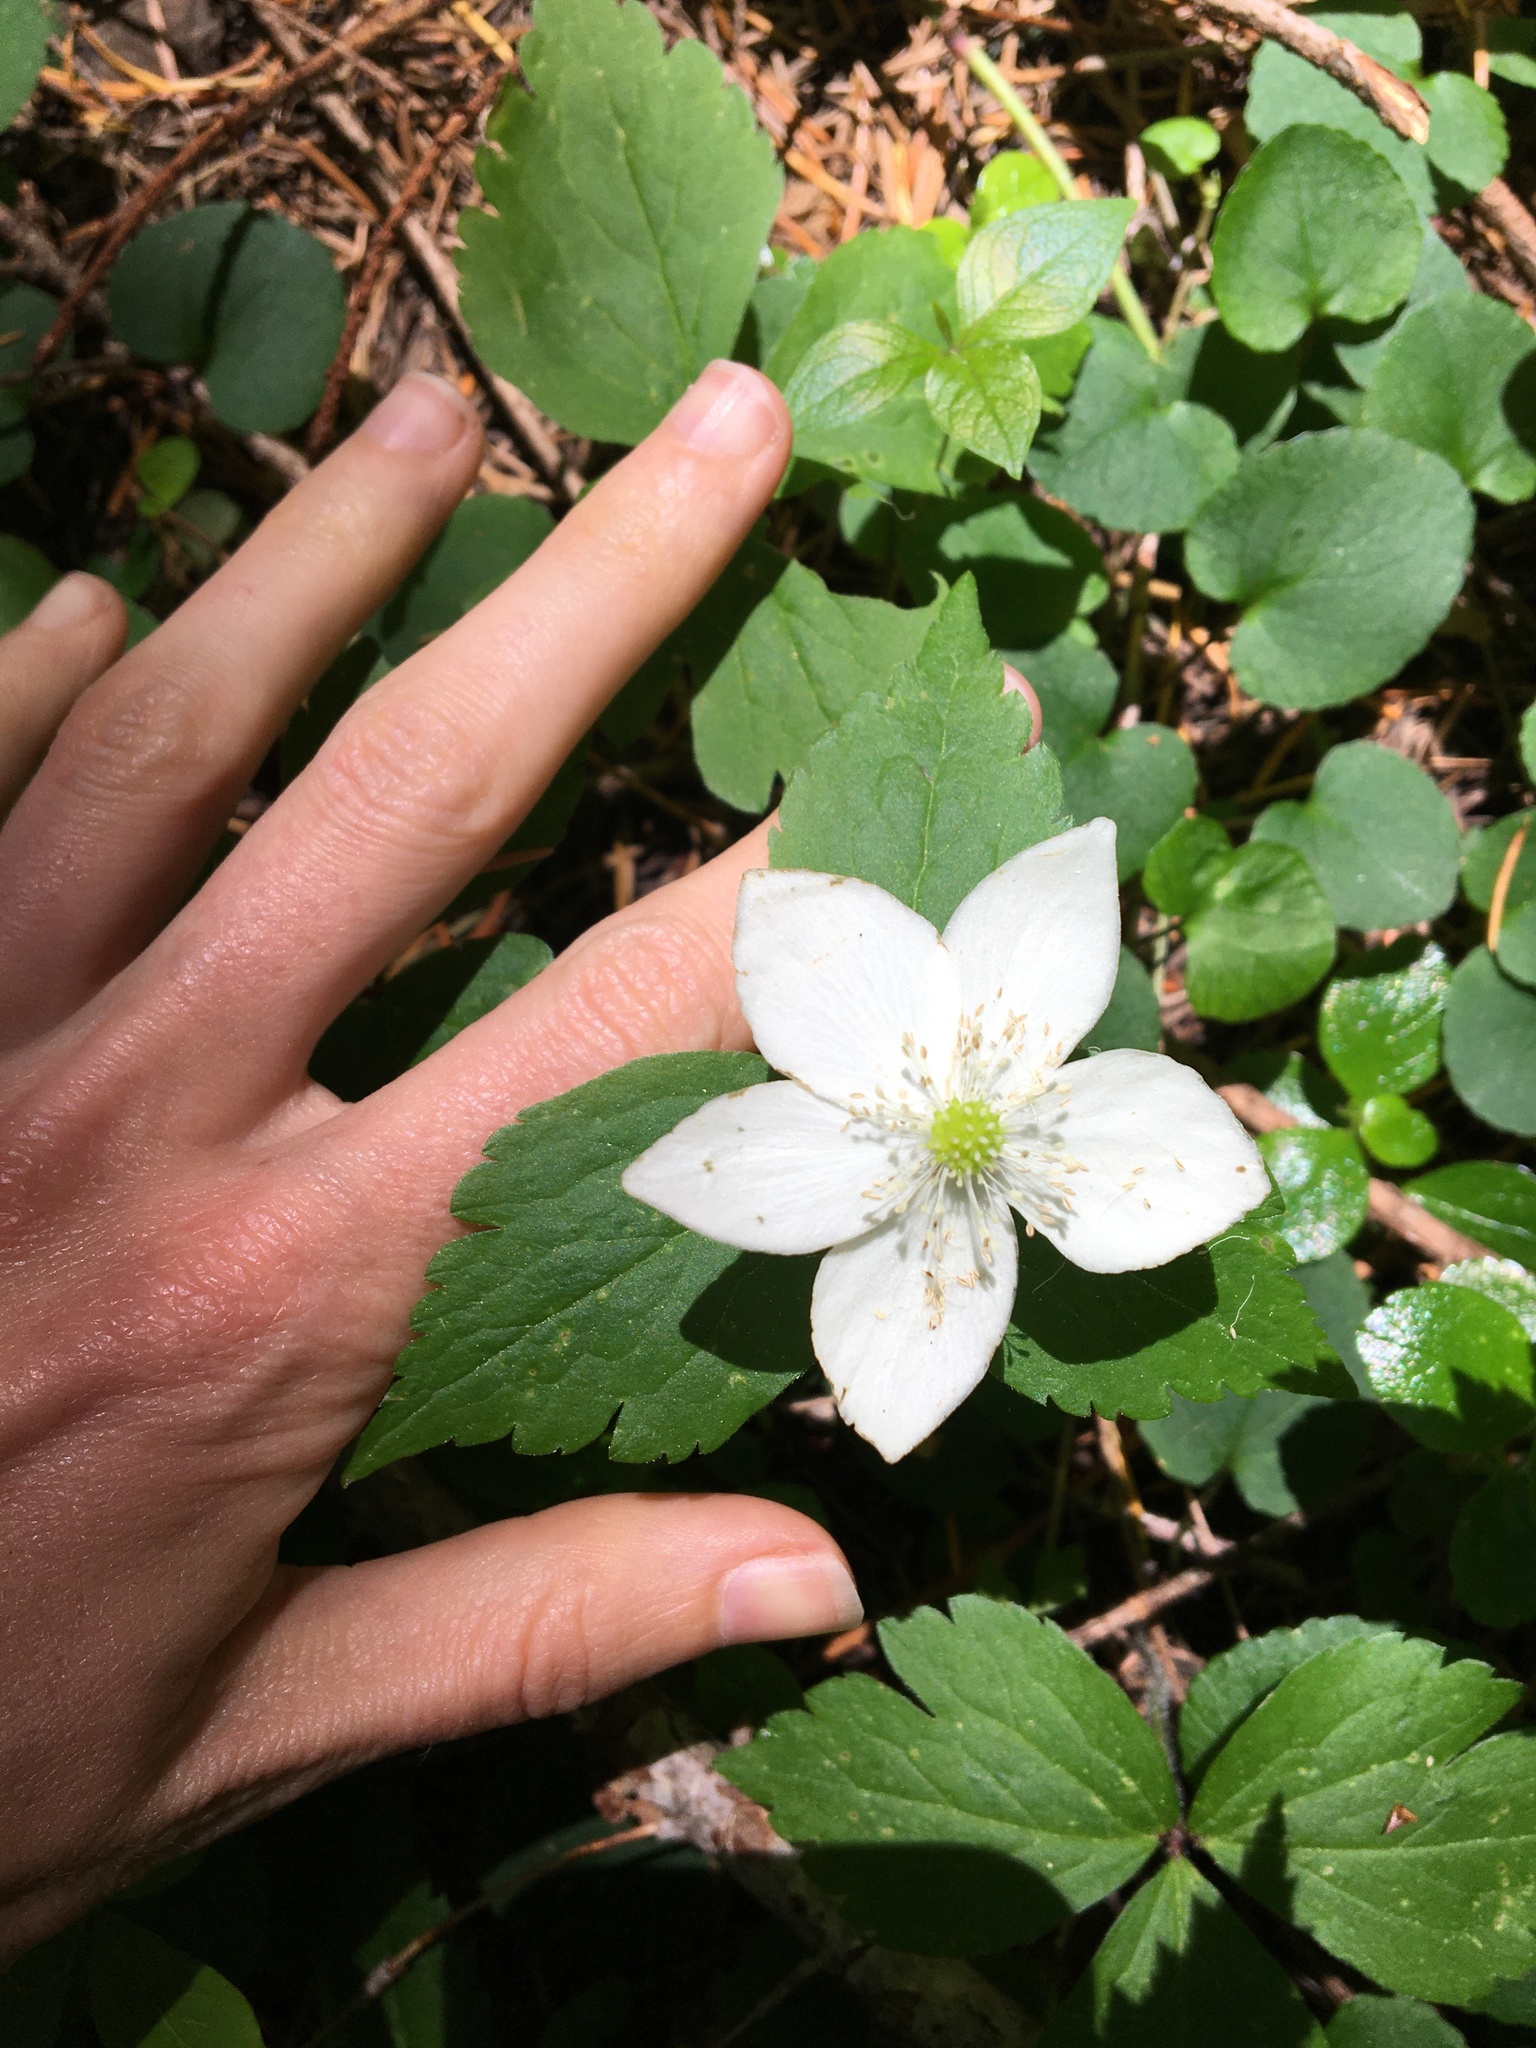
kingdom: Plantae
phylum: Tracheophyta
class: Magnoliopsida
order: Ranunculales
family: Ranunculaceae
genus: Anemonastrum
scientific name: Anemonastrum deltoideum
